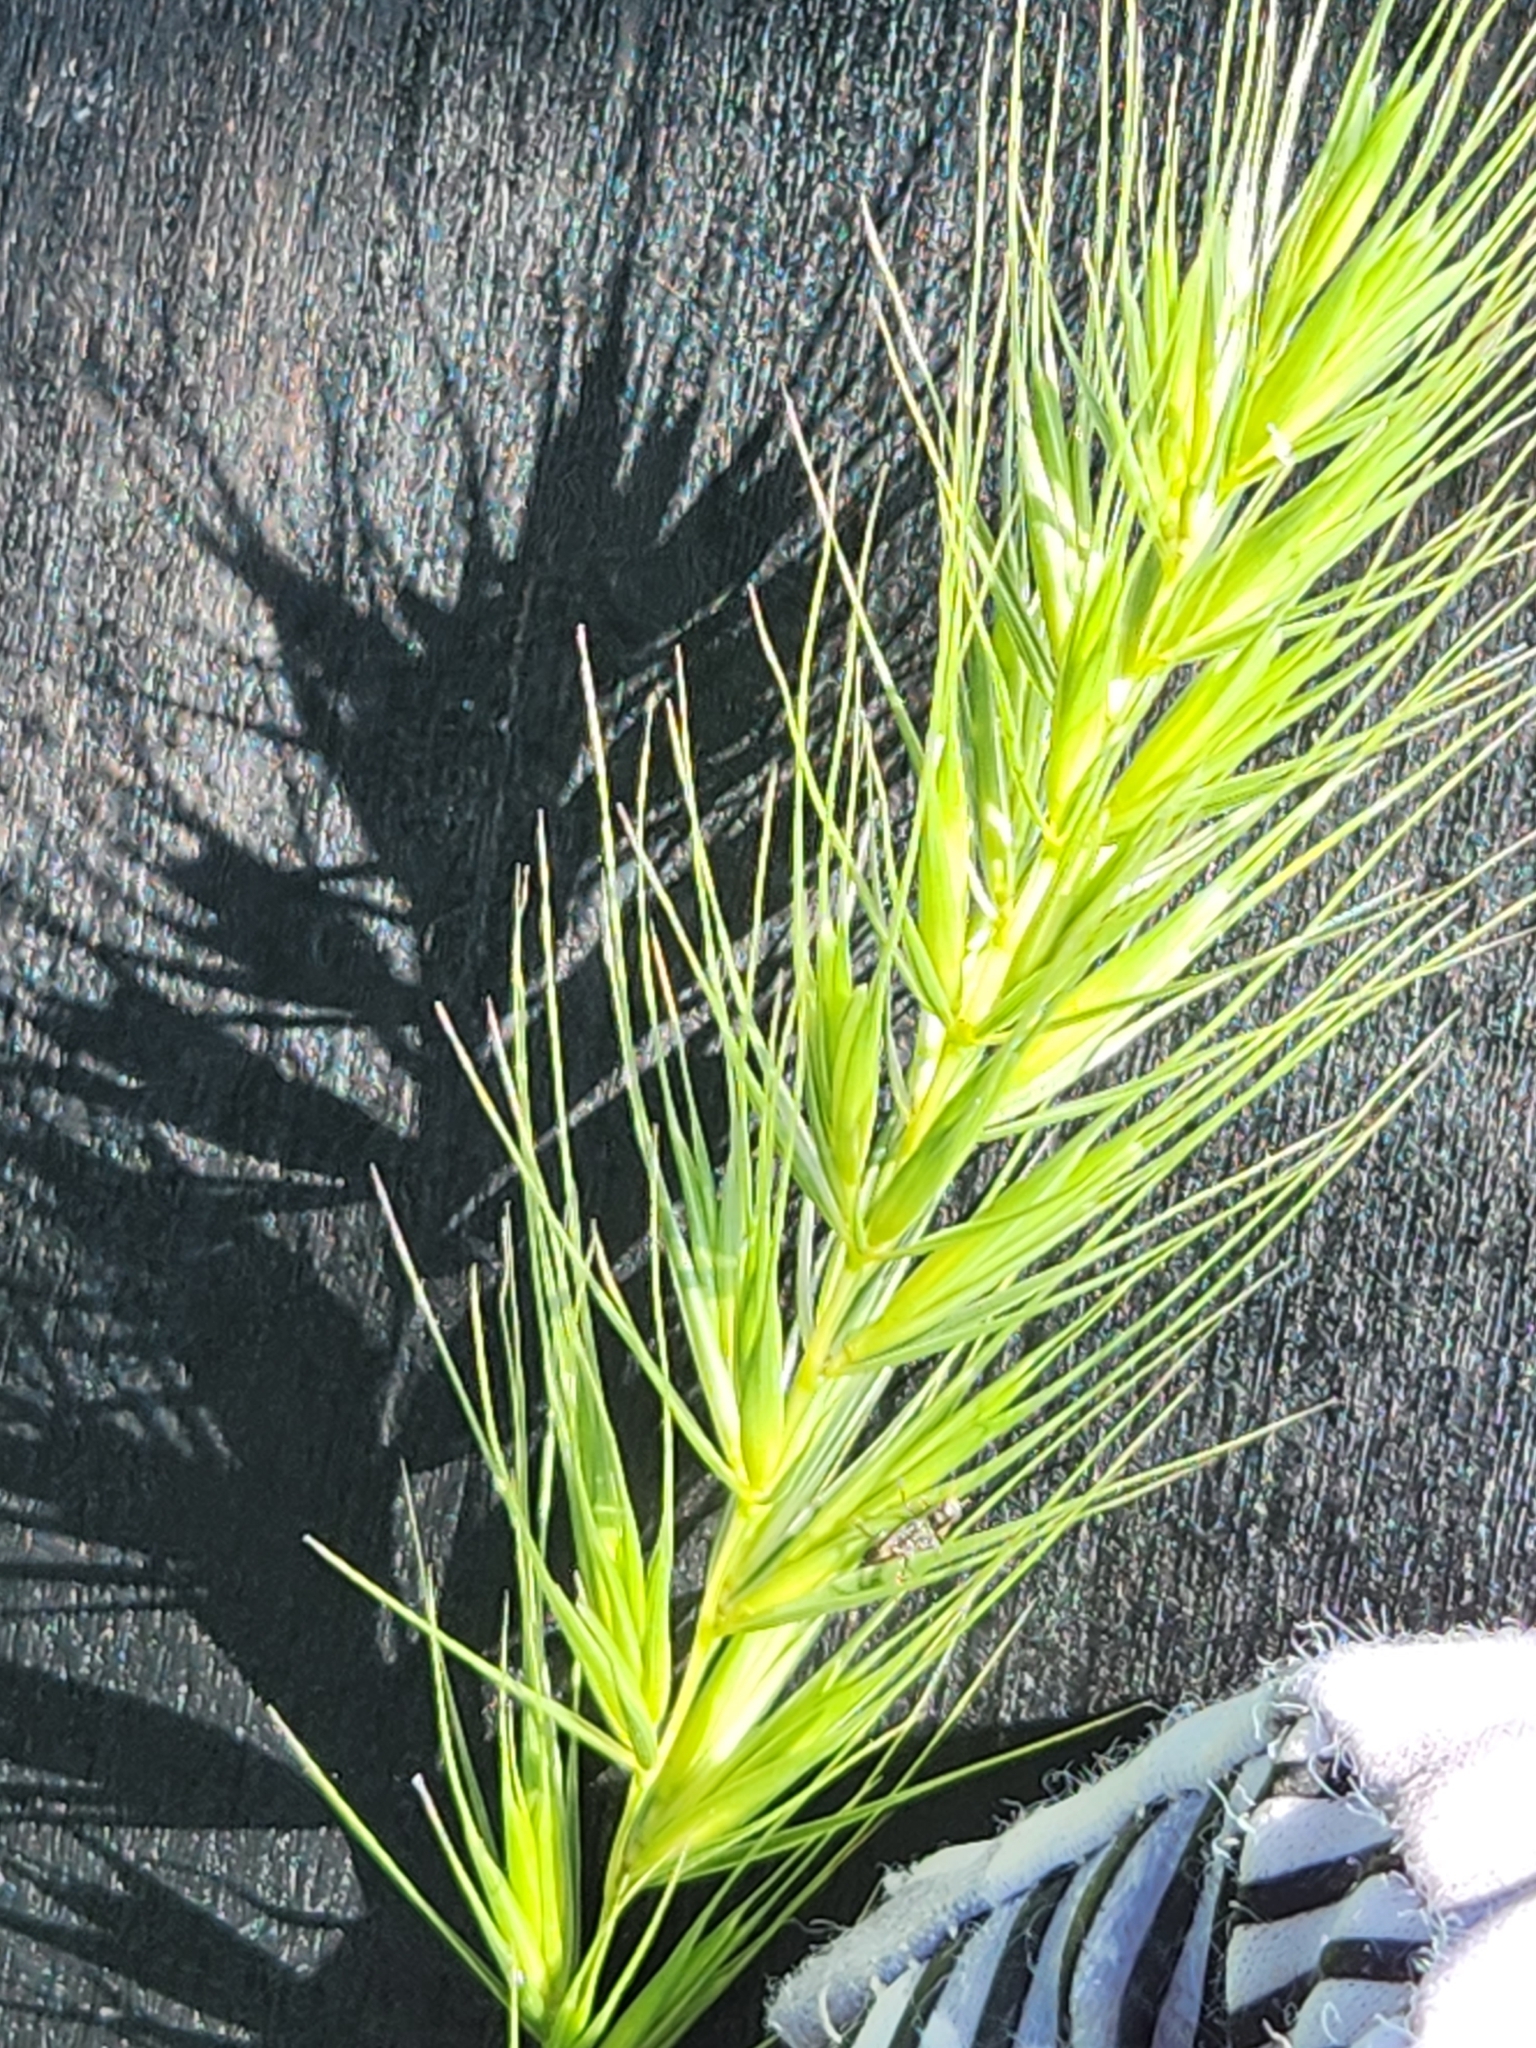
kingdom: Plantae
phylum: Tracheophyta
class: Liliopsida
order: Poales
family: Poaceae
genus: Elymus
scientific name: Elymus virginicus
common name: Common eastern wildrye
